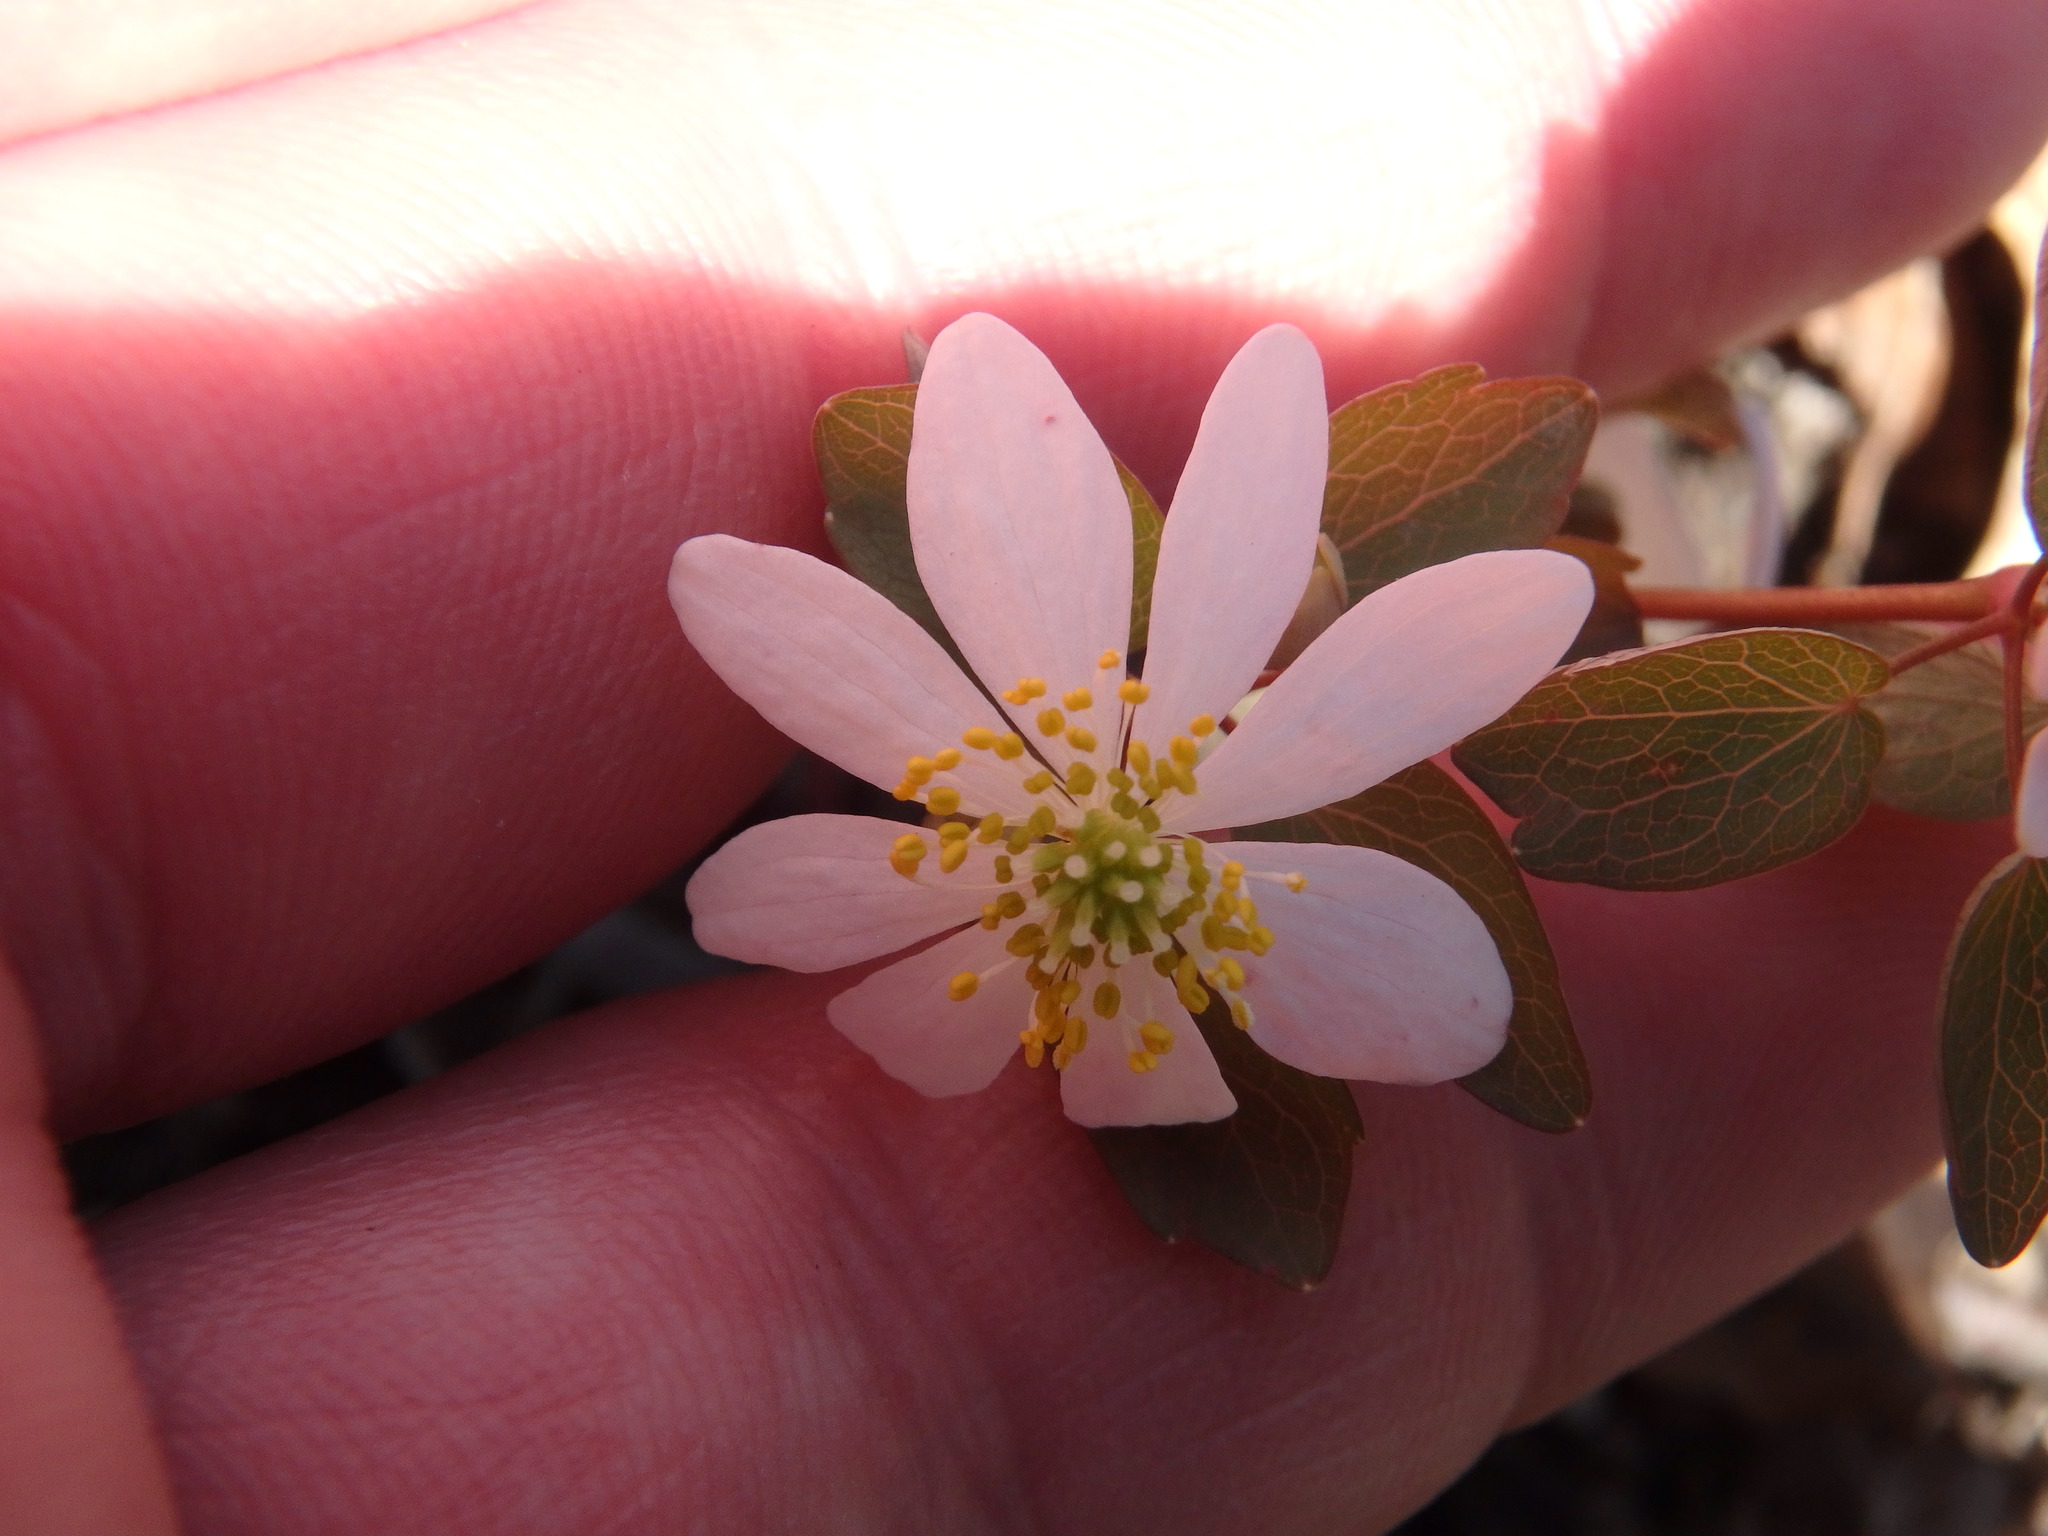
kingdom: Plantae
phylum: Tracheophyta
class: Magnoliopsida
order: Ranunculales
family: Ranunculaceae
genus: Thalictrum
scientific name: Thalictrum thalictroides
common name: Rue-anemone
